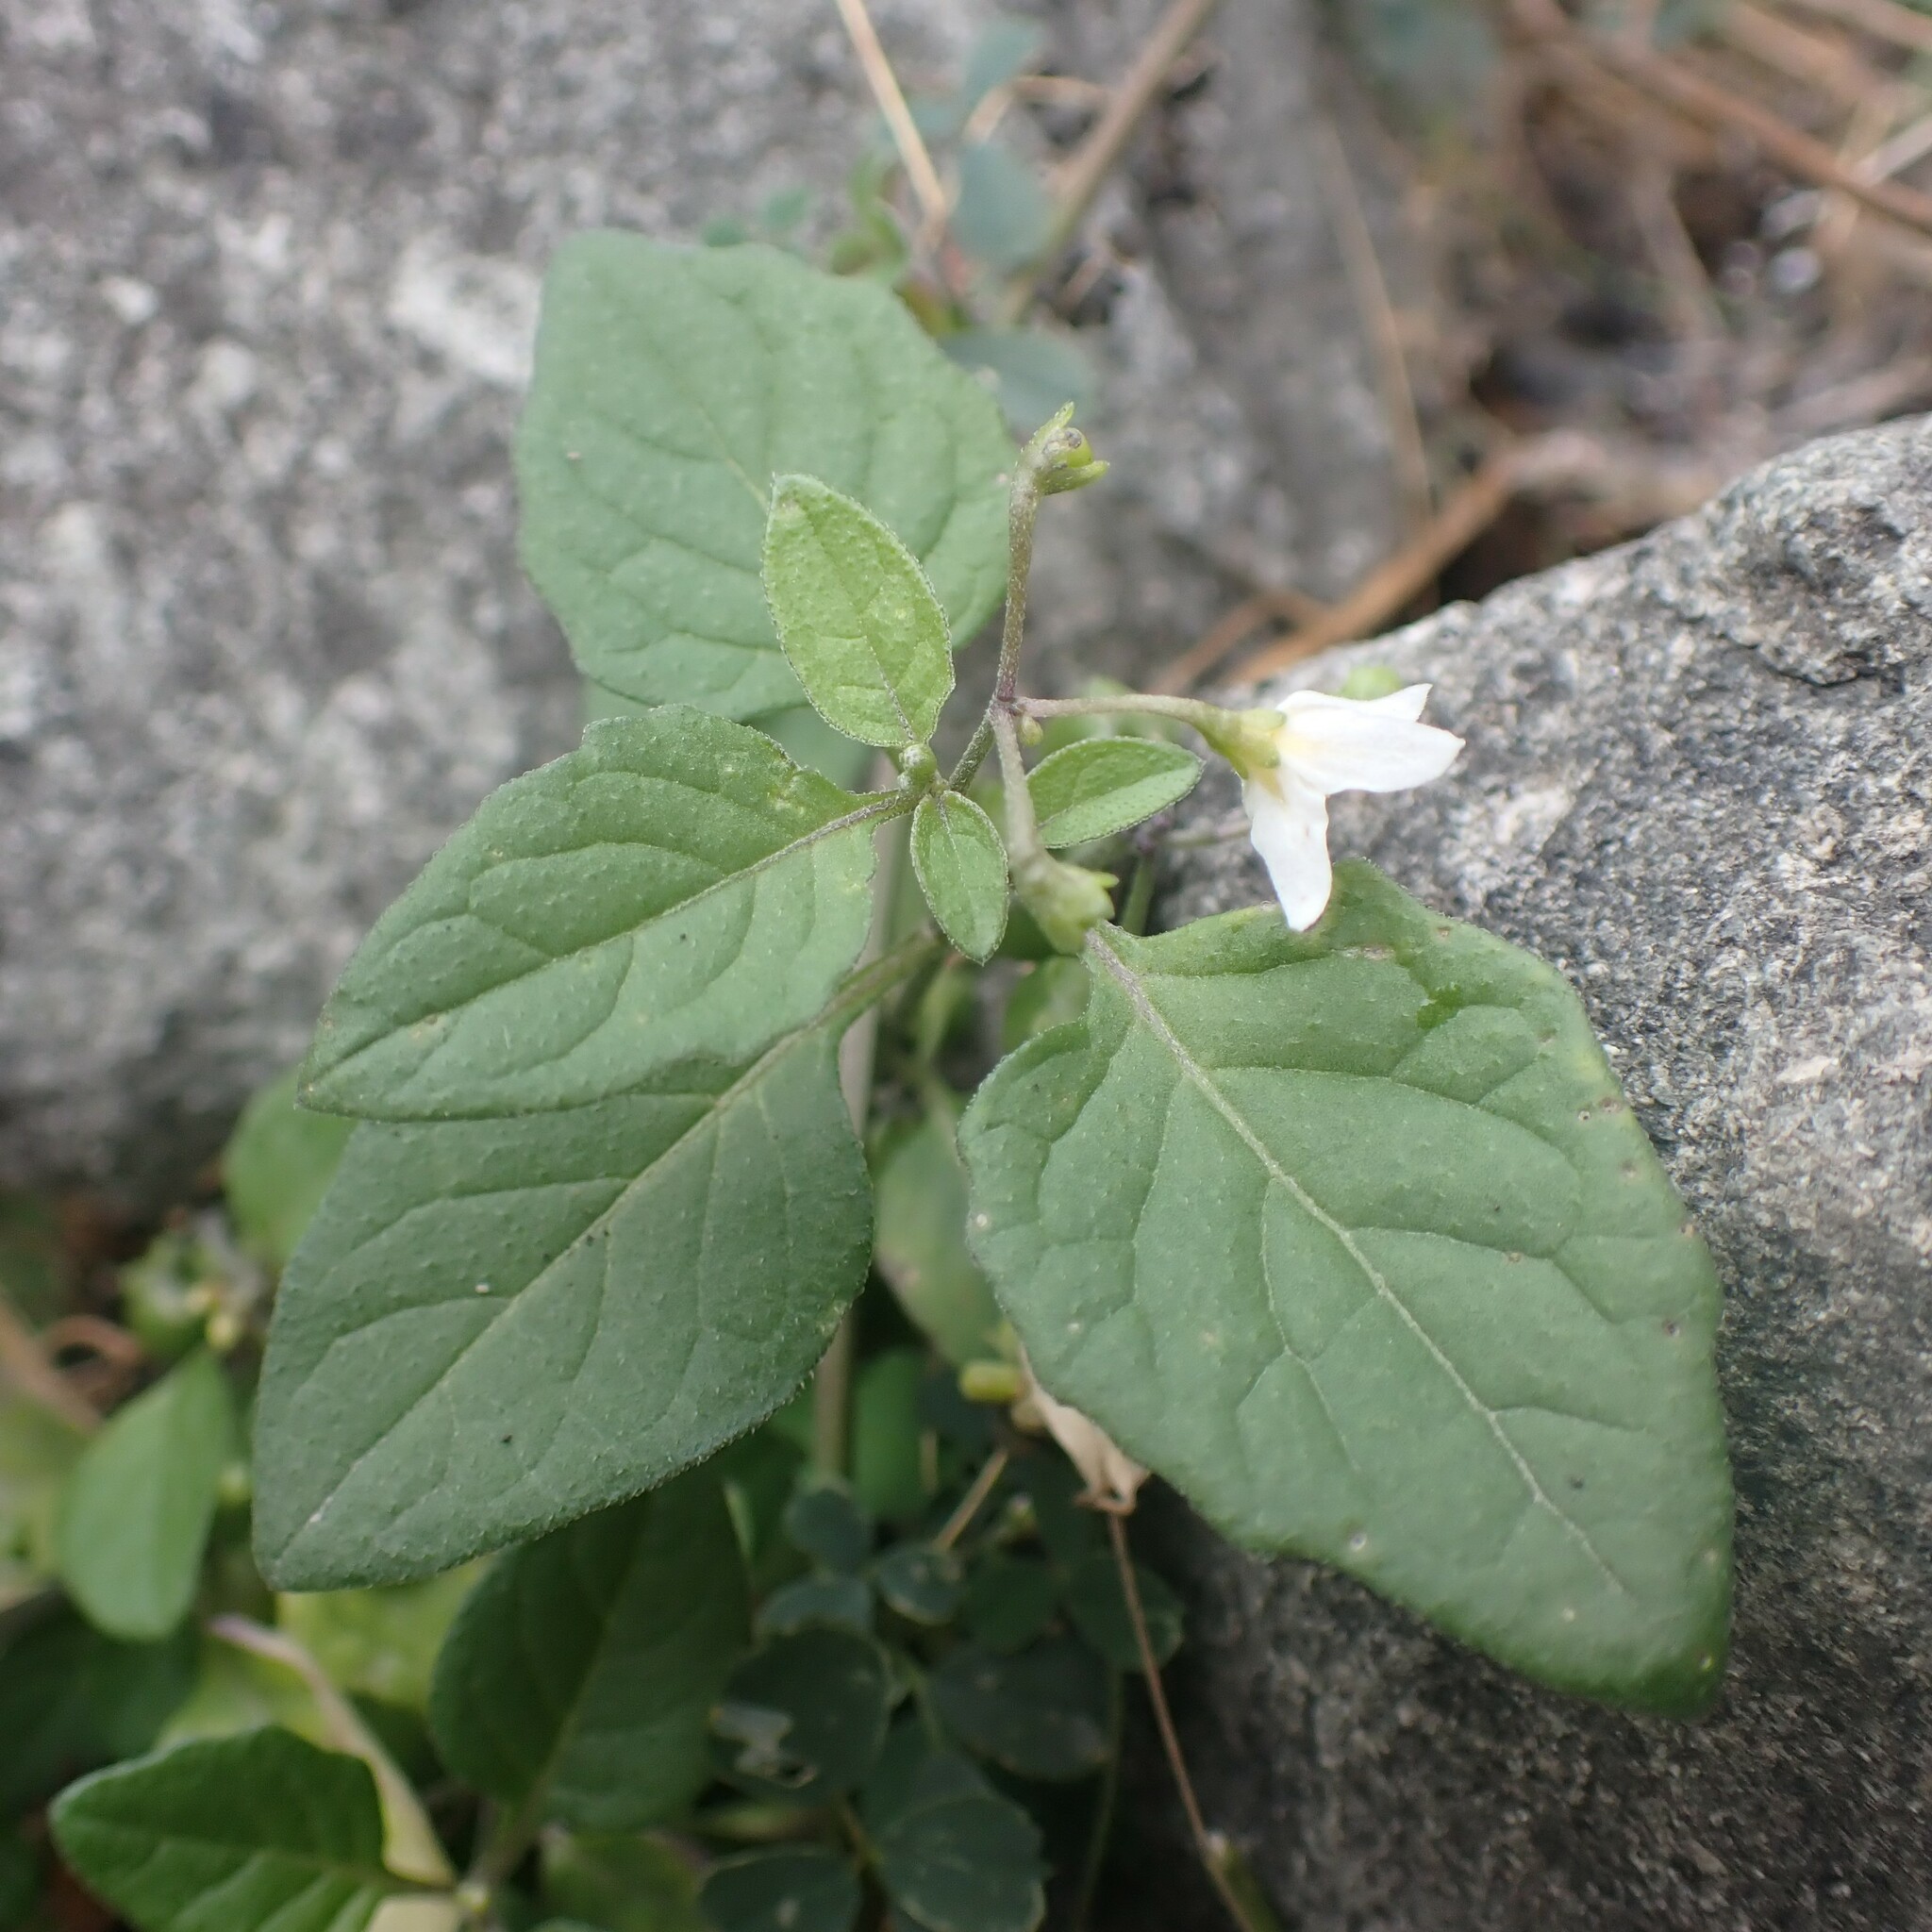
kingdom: Plantae
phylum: Tracheophyta
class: Magnoliopsida
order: Solanales
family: Solanaceae
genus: Solanum
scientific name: Solanum
